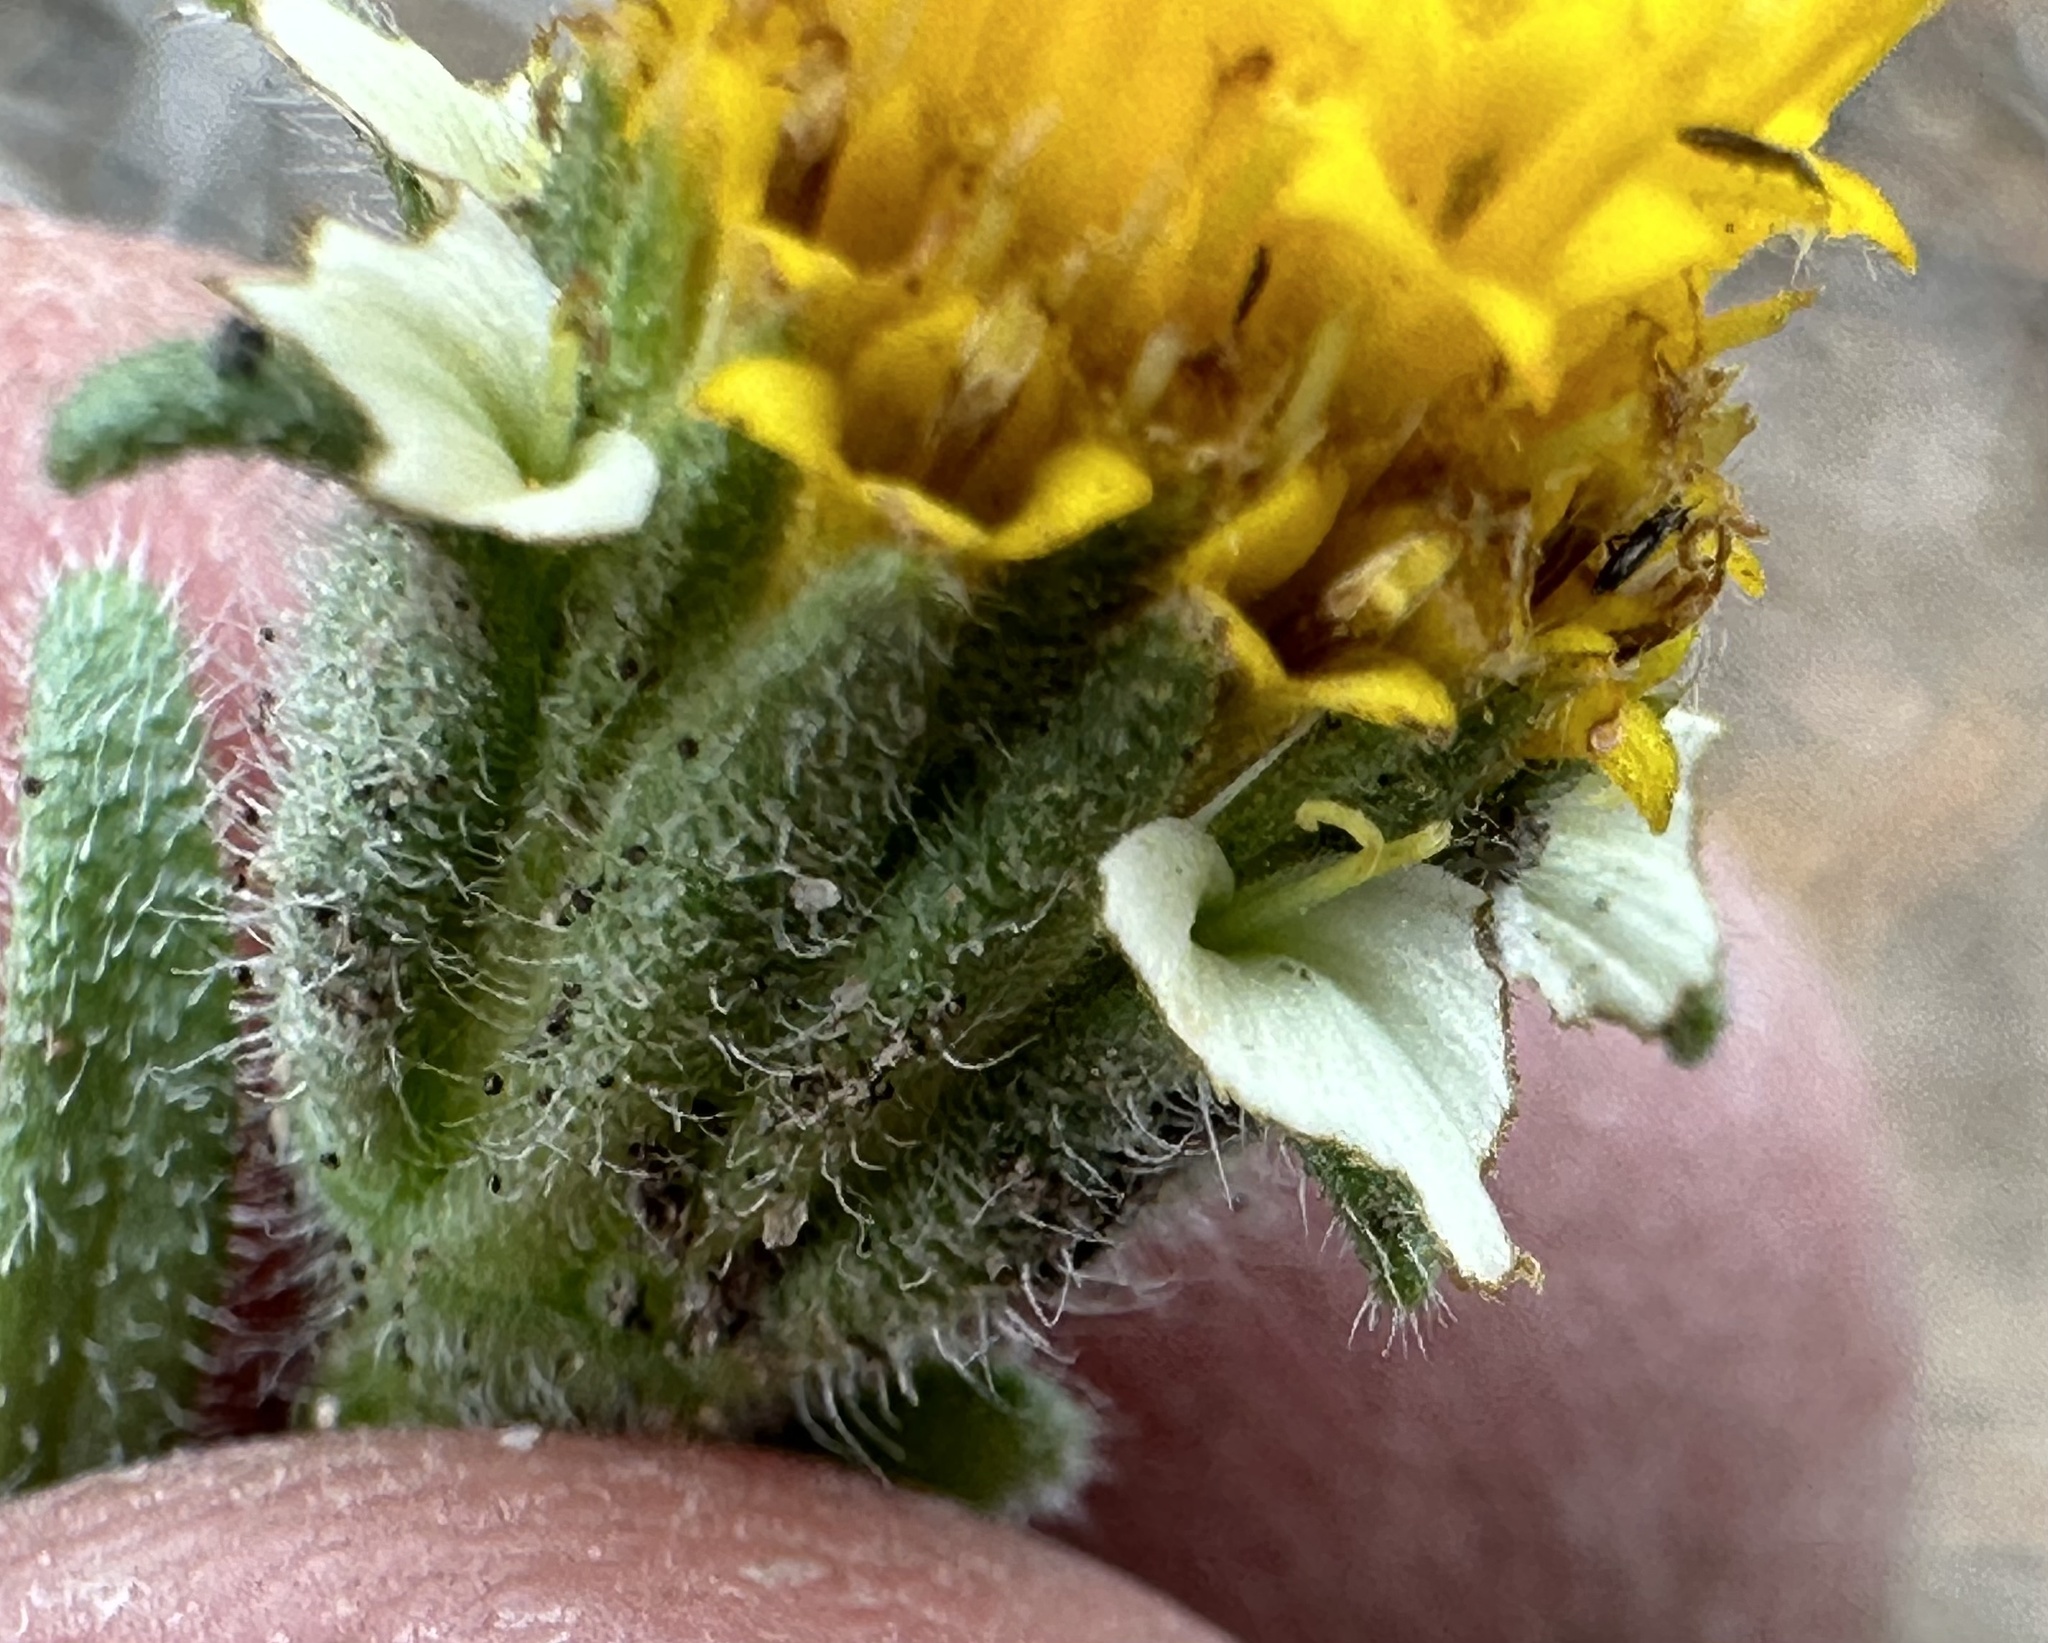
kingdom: Plantae
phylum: Tracheophyta
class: Magnoliopsida
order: Asterales
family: Asteraceae
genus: Layia
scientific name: Layia glandulosa
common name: White layia
